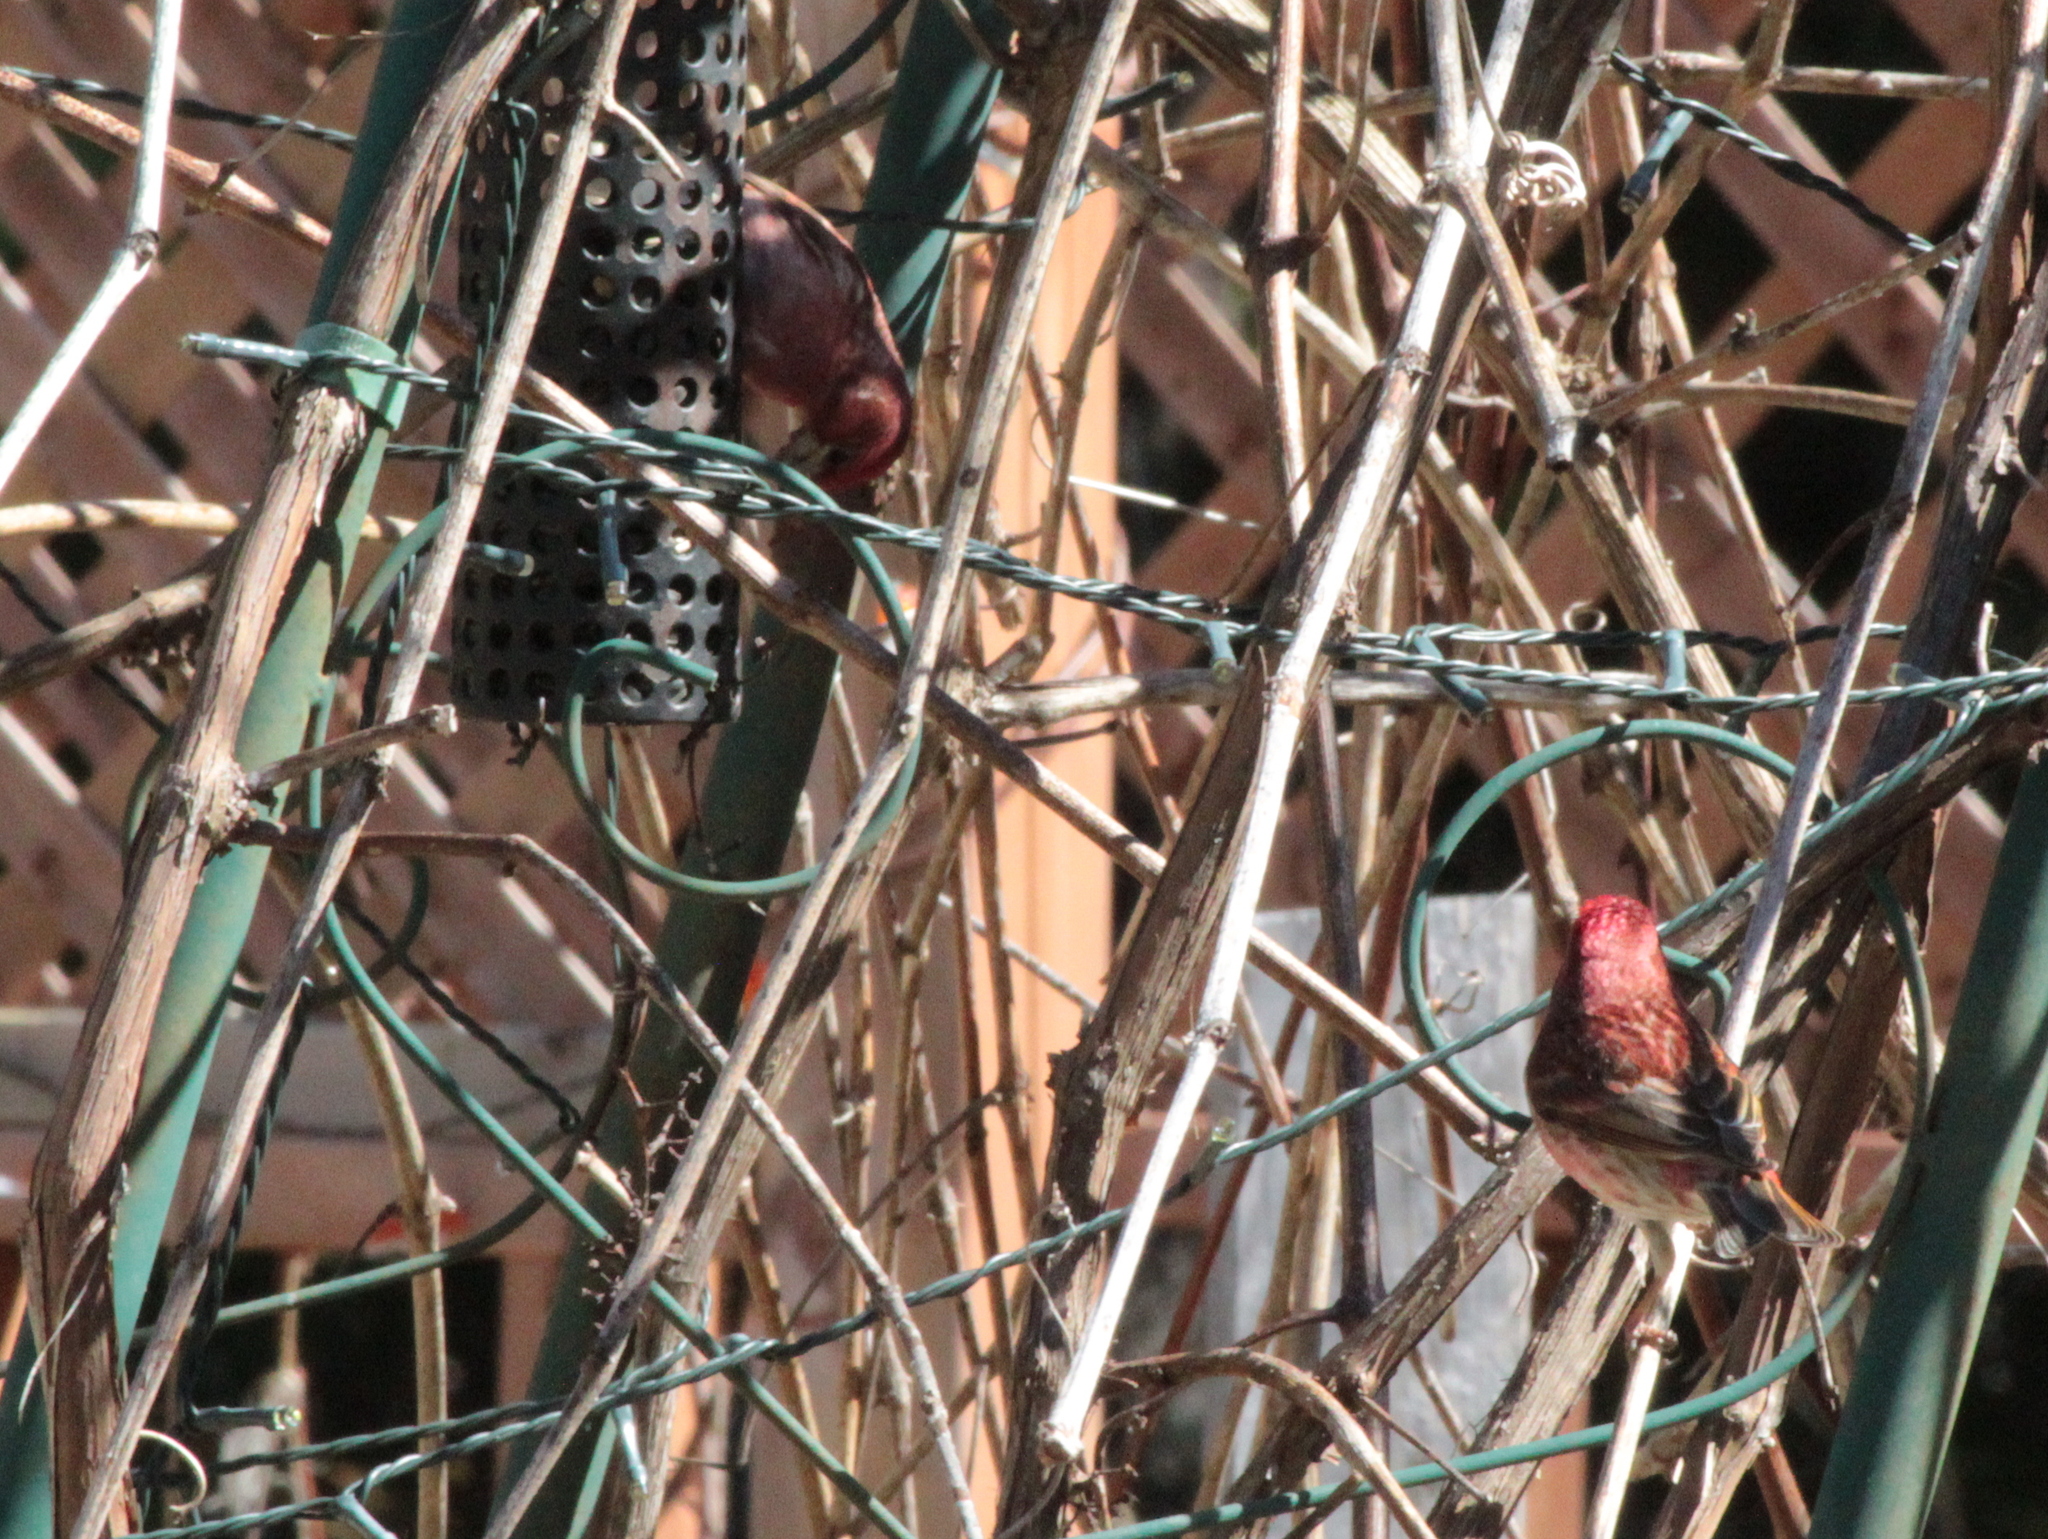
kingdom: Animalia
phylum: Chordata
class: Aves
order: Passeriformes
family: Fringillidae
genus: Haemorhous
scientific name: Haemorhous purpureus
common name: Purple finch
